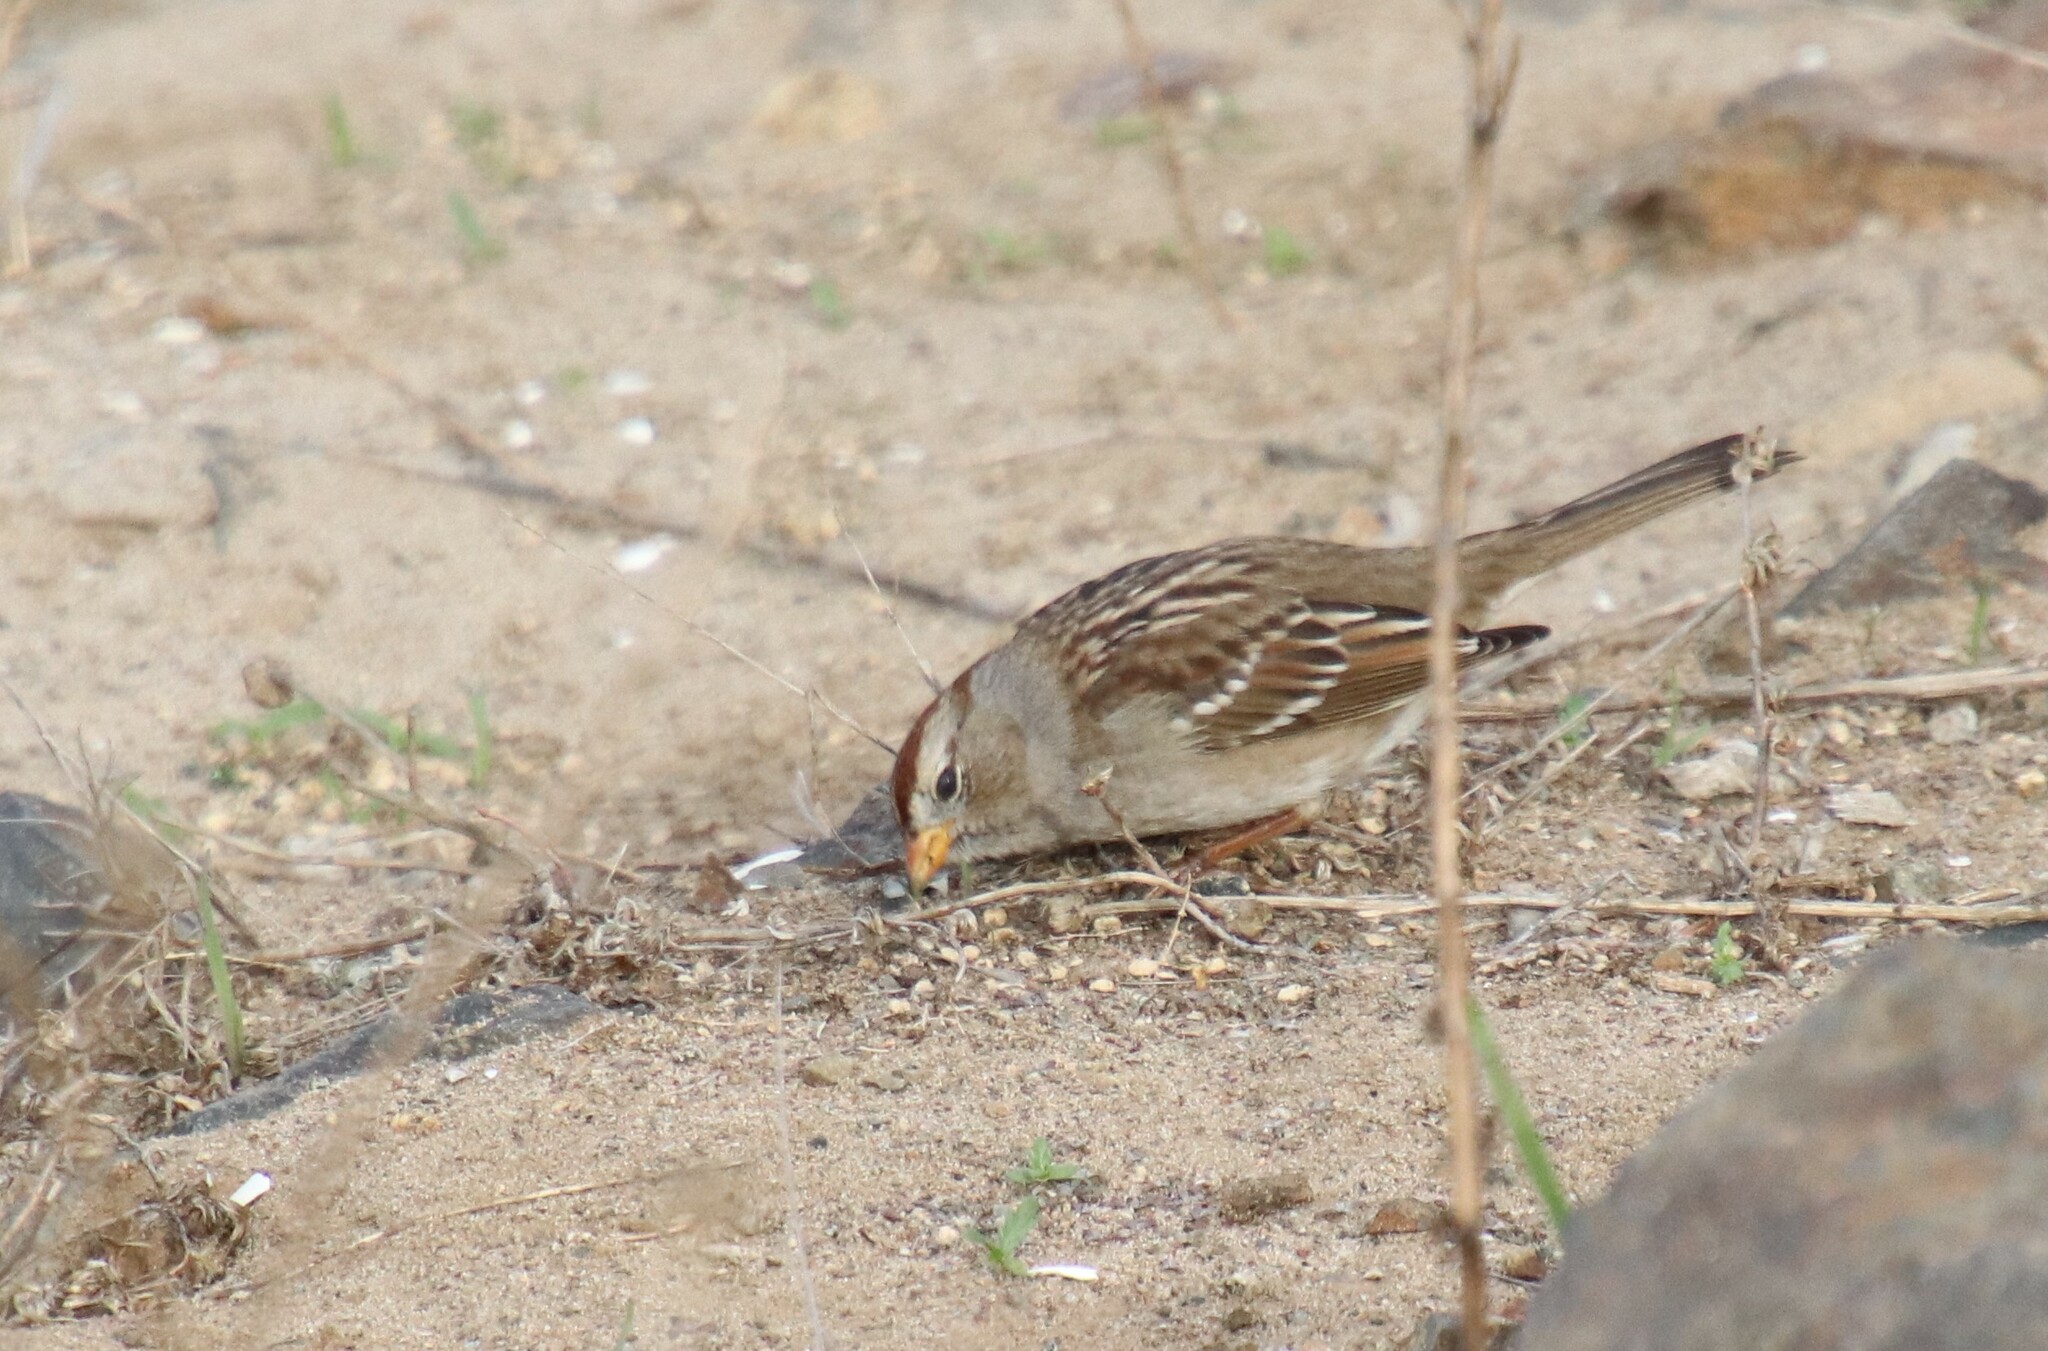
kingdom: Animalia
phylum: Chordata
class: Aves
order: Passeriformes
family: Passerellidae
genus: Zonotrichia
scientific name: Zonotrichia leucophrys
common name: White-crowned sparrow
